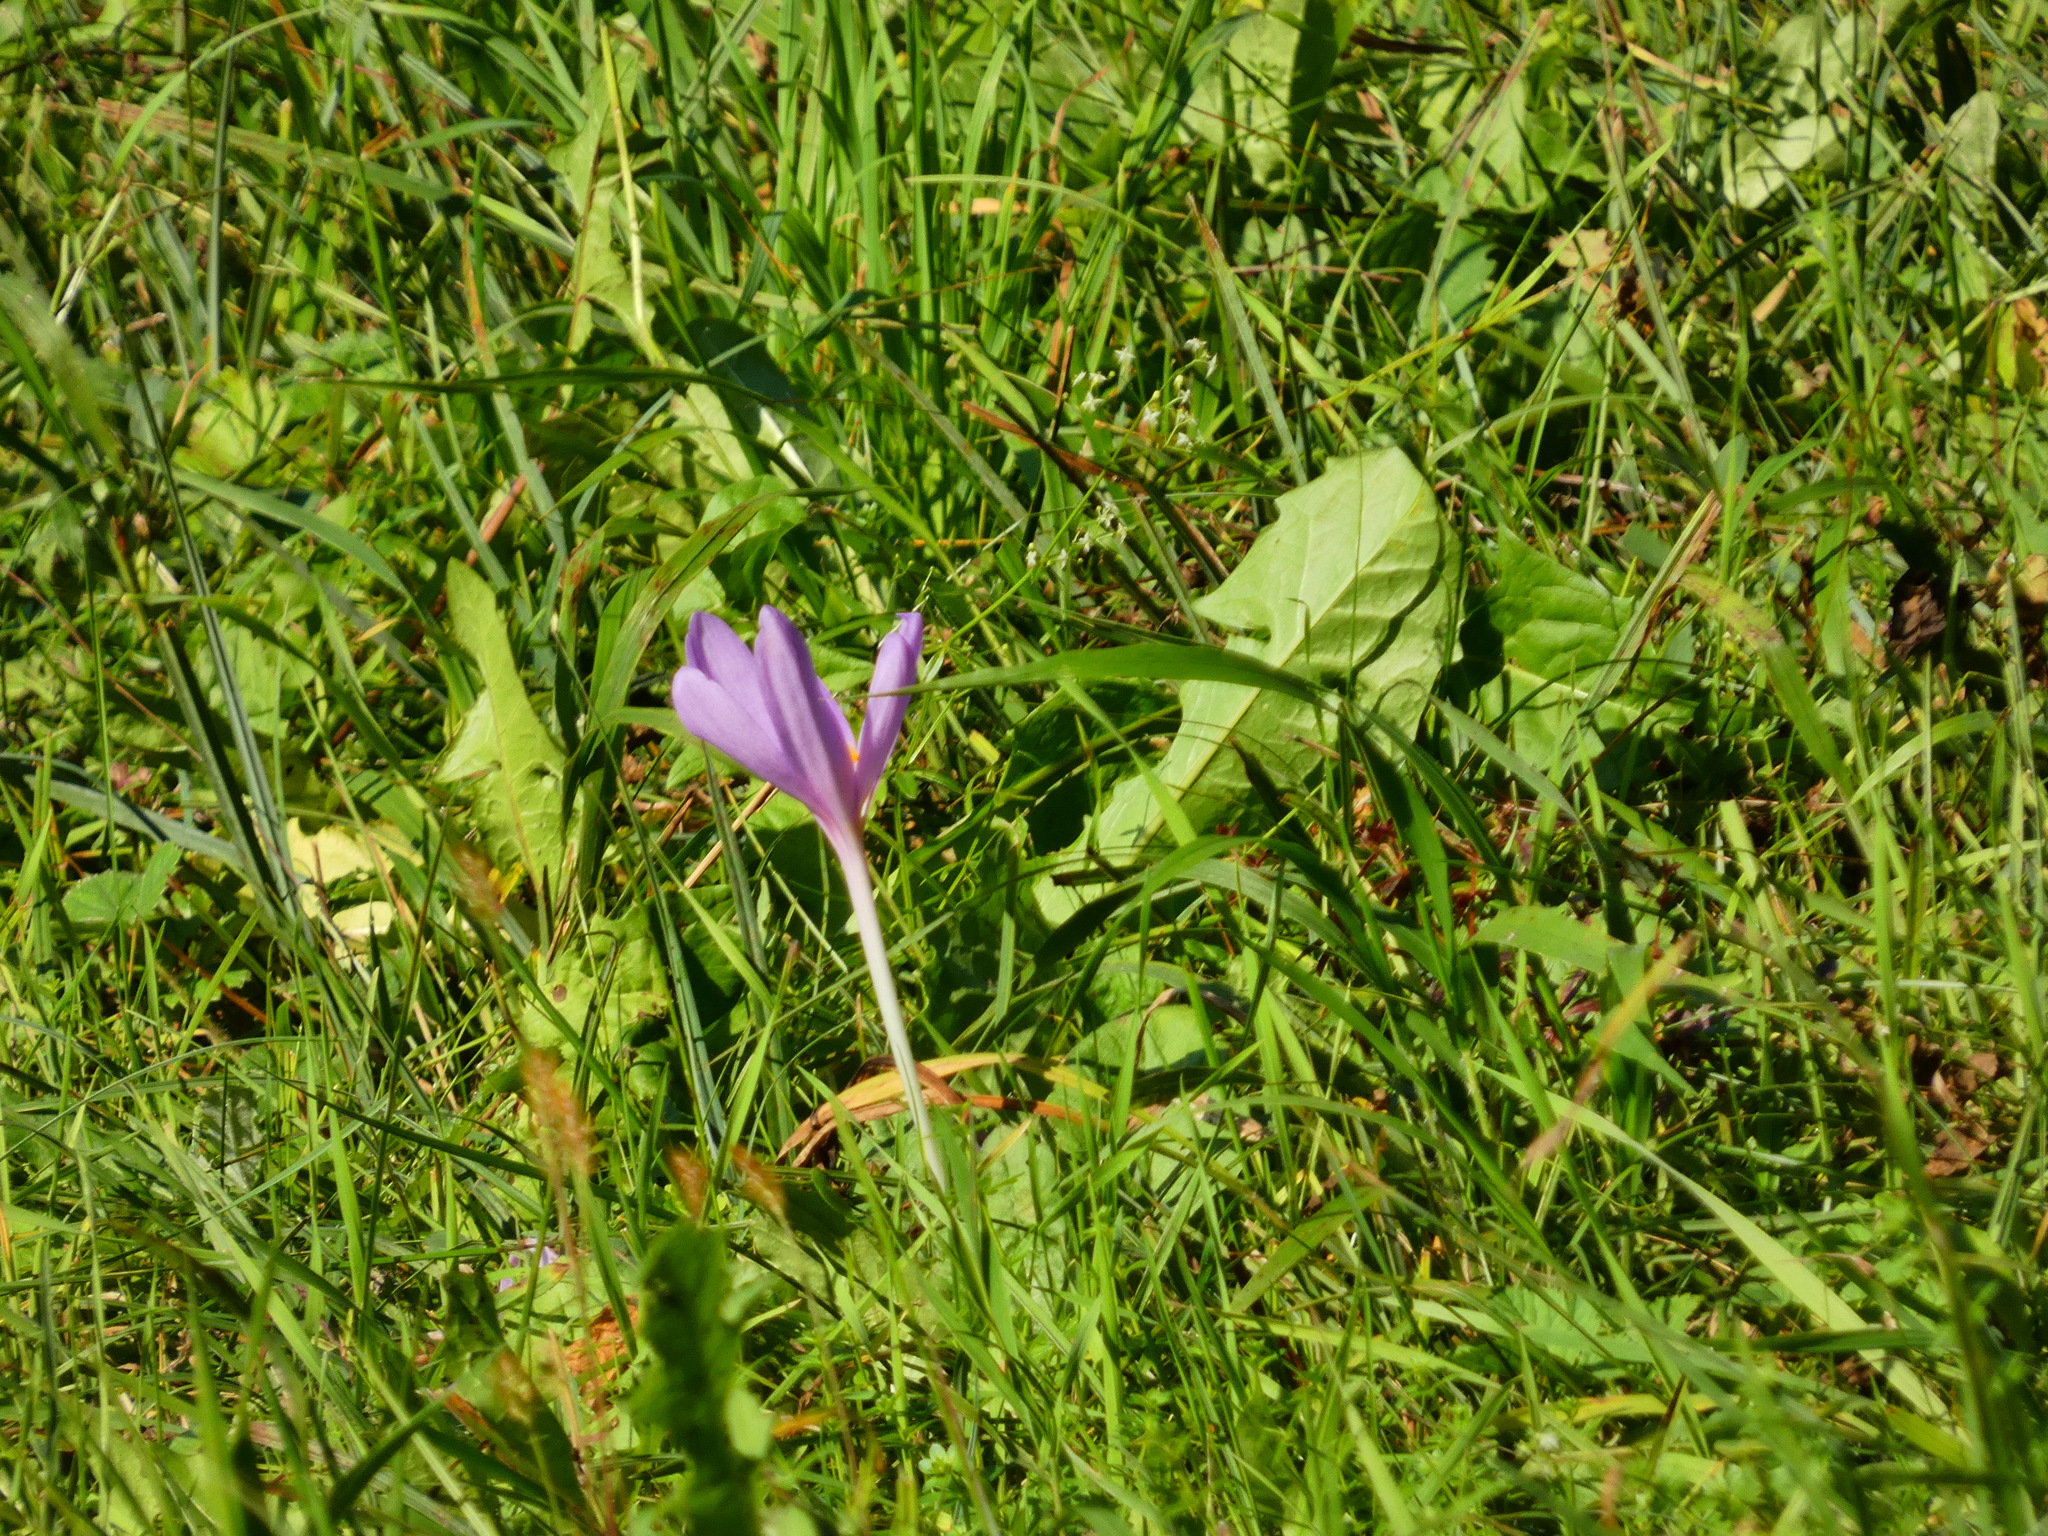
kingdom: Plantae
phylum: Tracheophyta
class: Liliopsida
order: Liliales
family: Colchicaceae
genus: Colchicum
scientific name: Colchicum autumnale
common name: Autumn crocus
